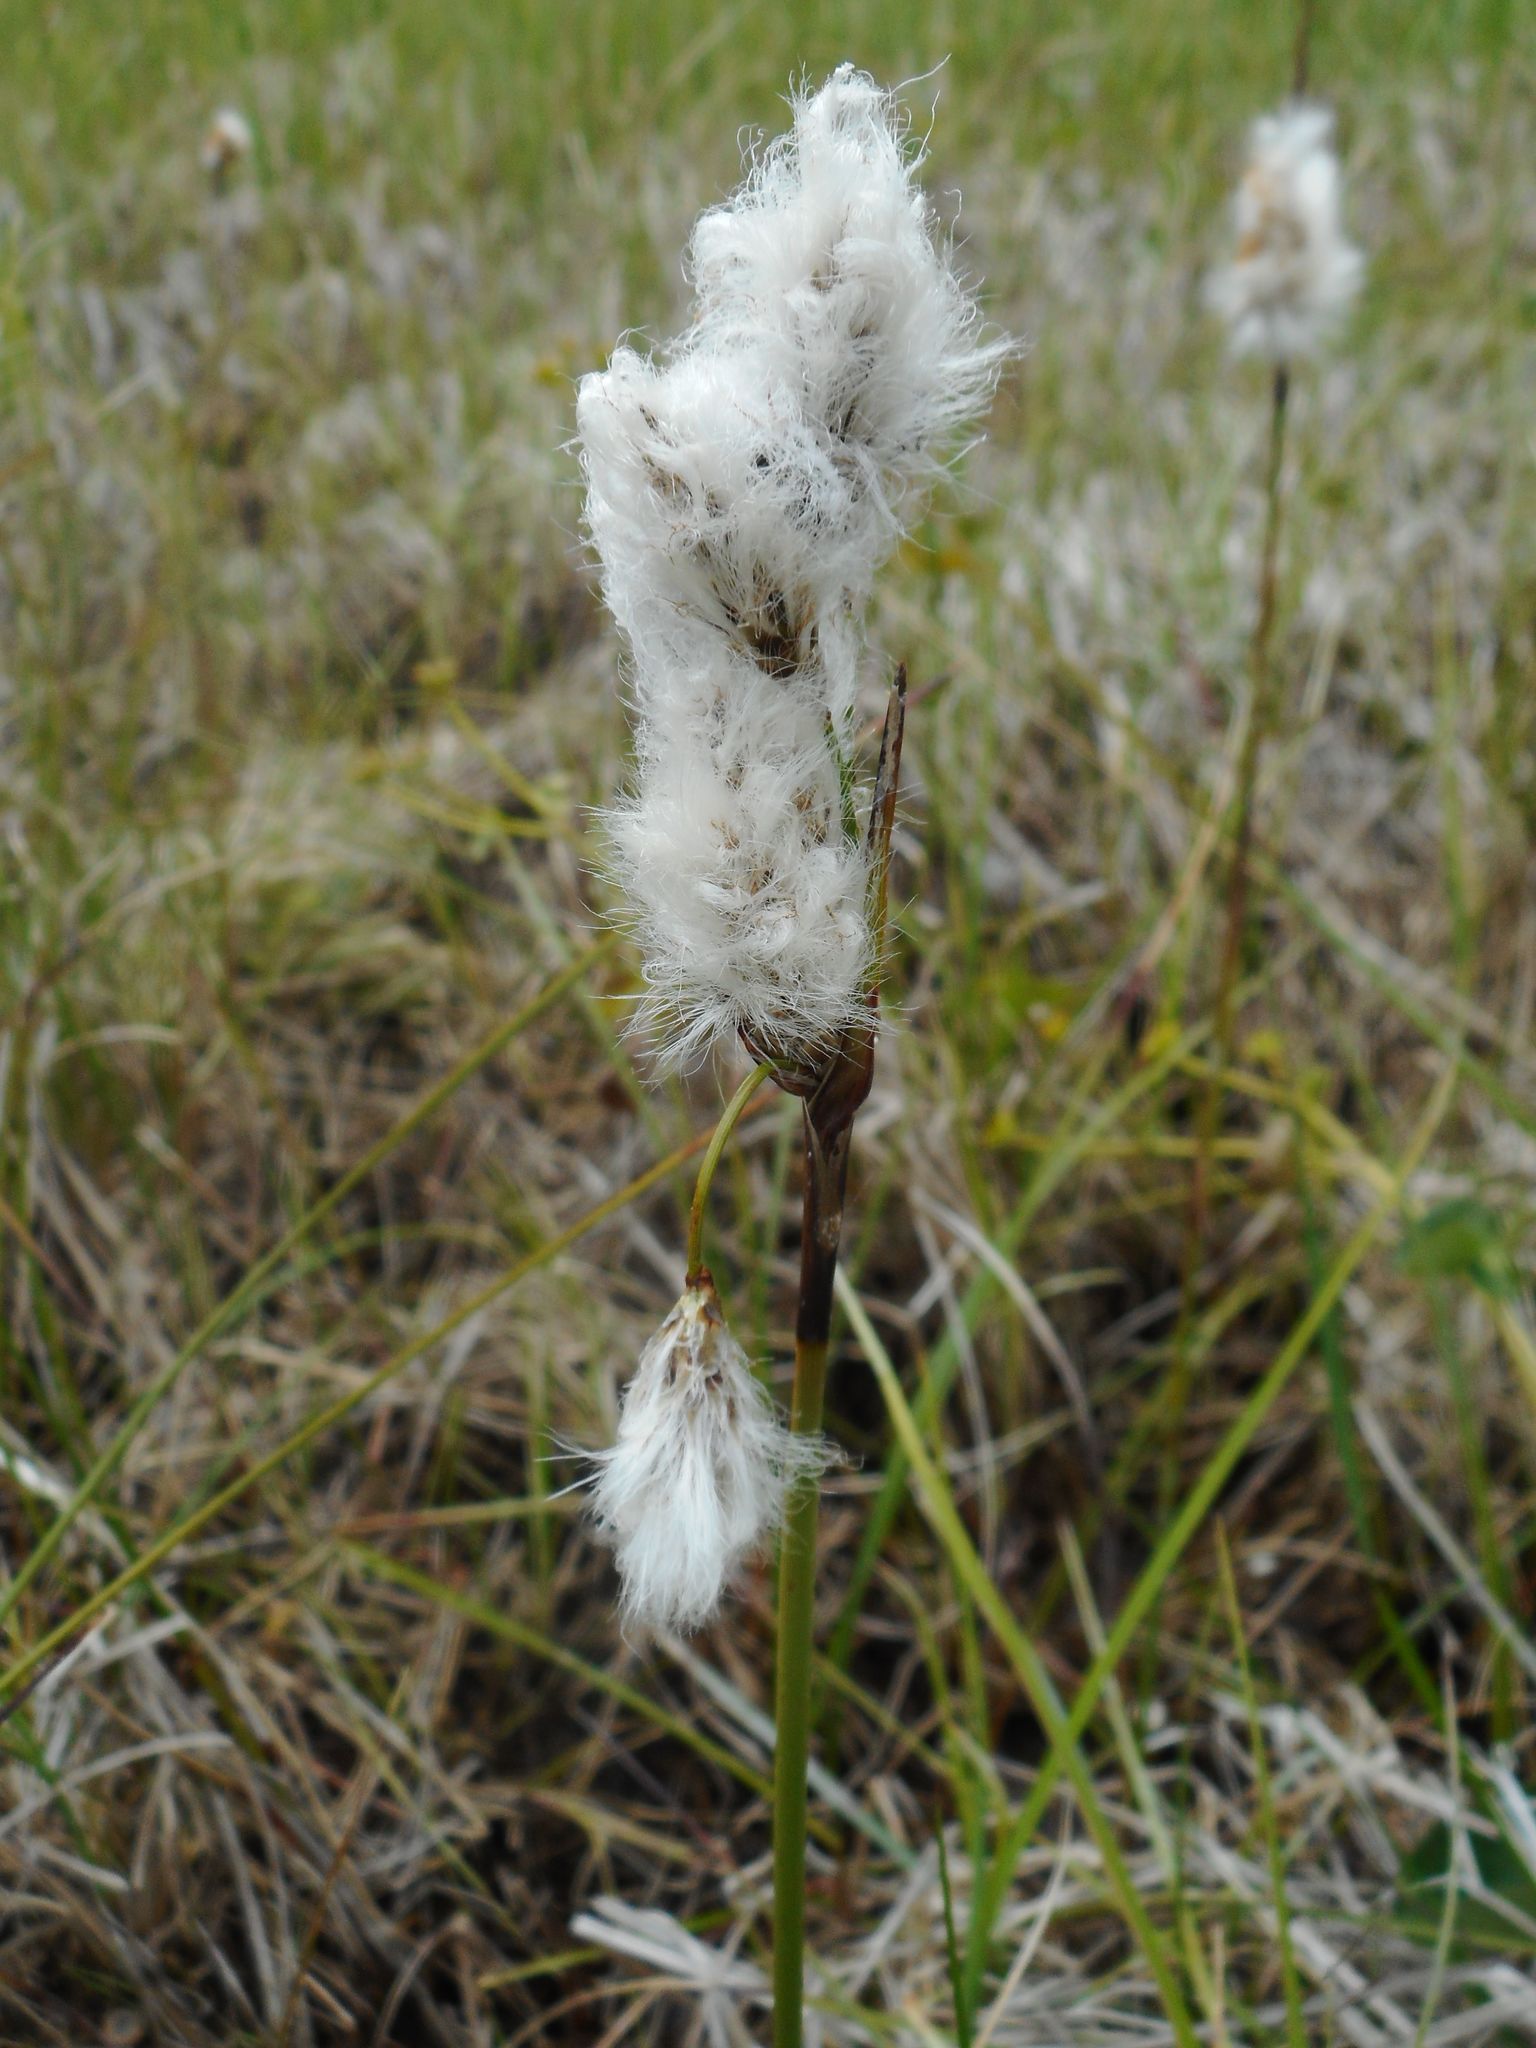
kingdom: Plantae
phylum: Tracheophyta
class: Liliopsida
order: Poales
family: Cyperaceae
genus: Eriophorum
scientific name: Eriophorum angustifolium
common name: Common cottongrass
